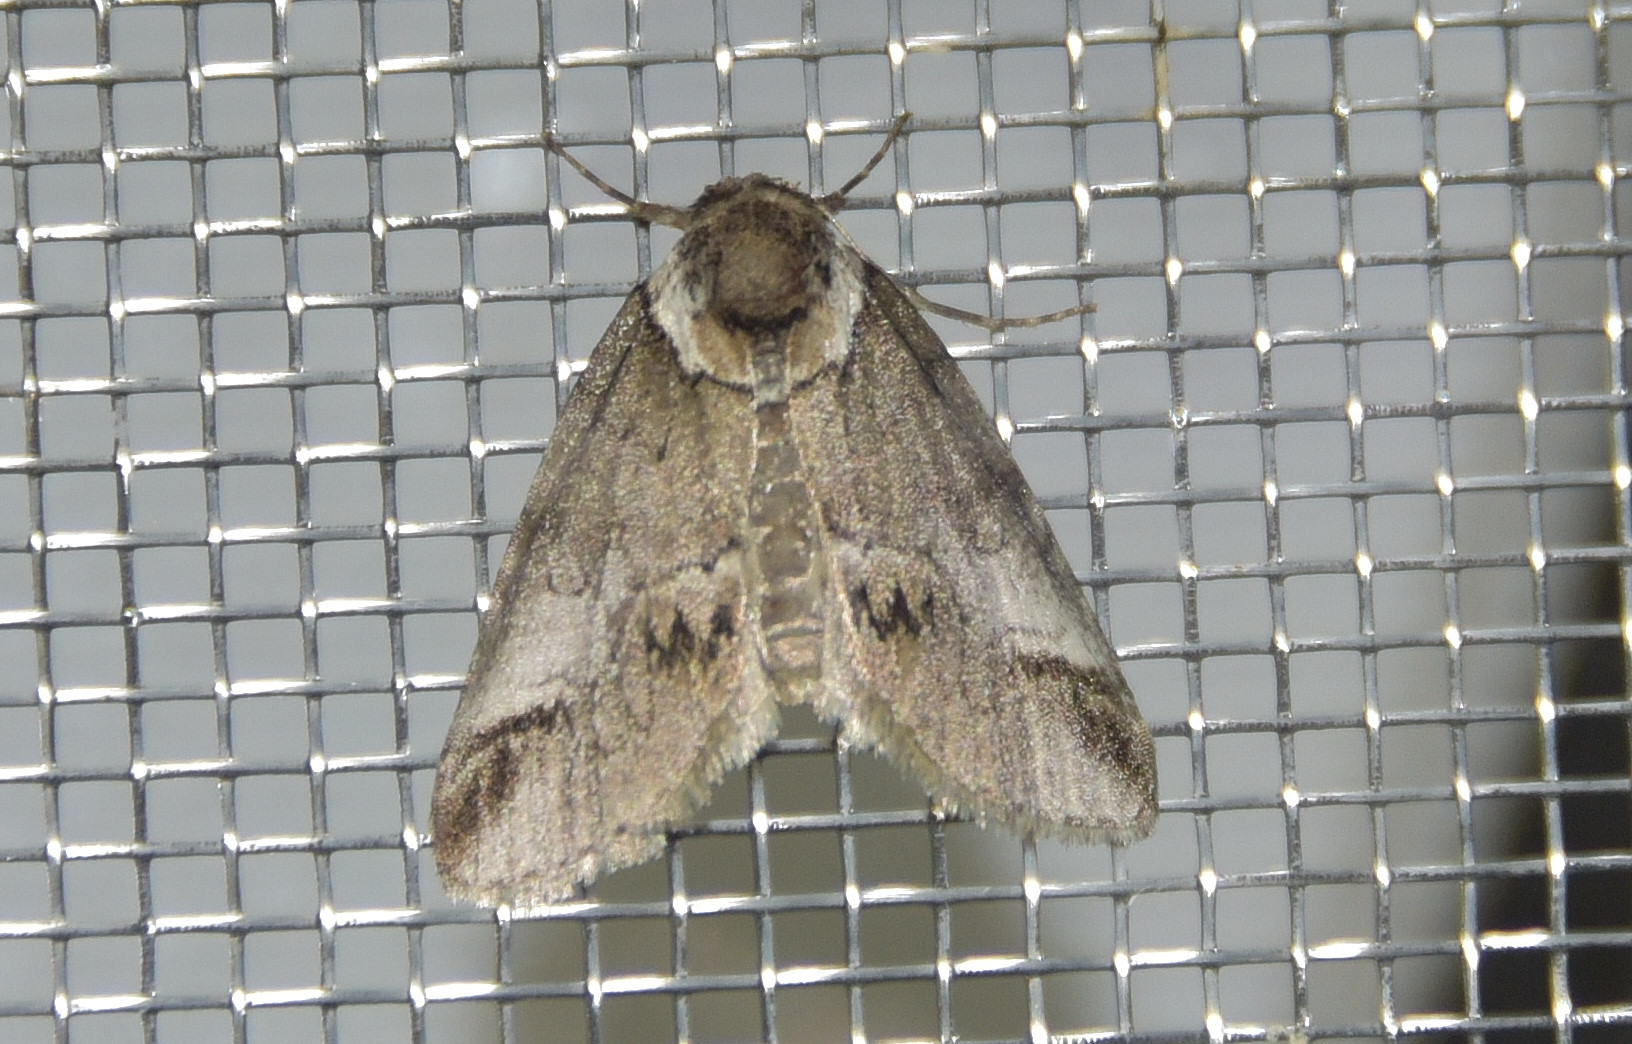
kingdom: Animalia
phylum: Arthropoda
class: Insecta
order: Lepidoptera
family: Nolidae
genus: Baileya
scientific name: Baileya australis
